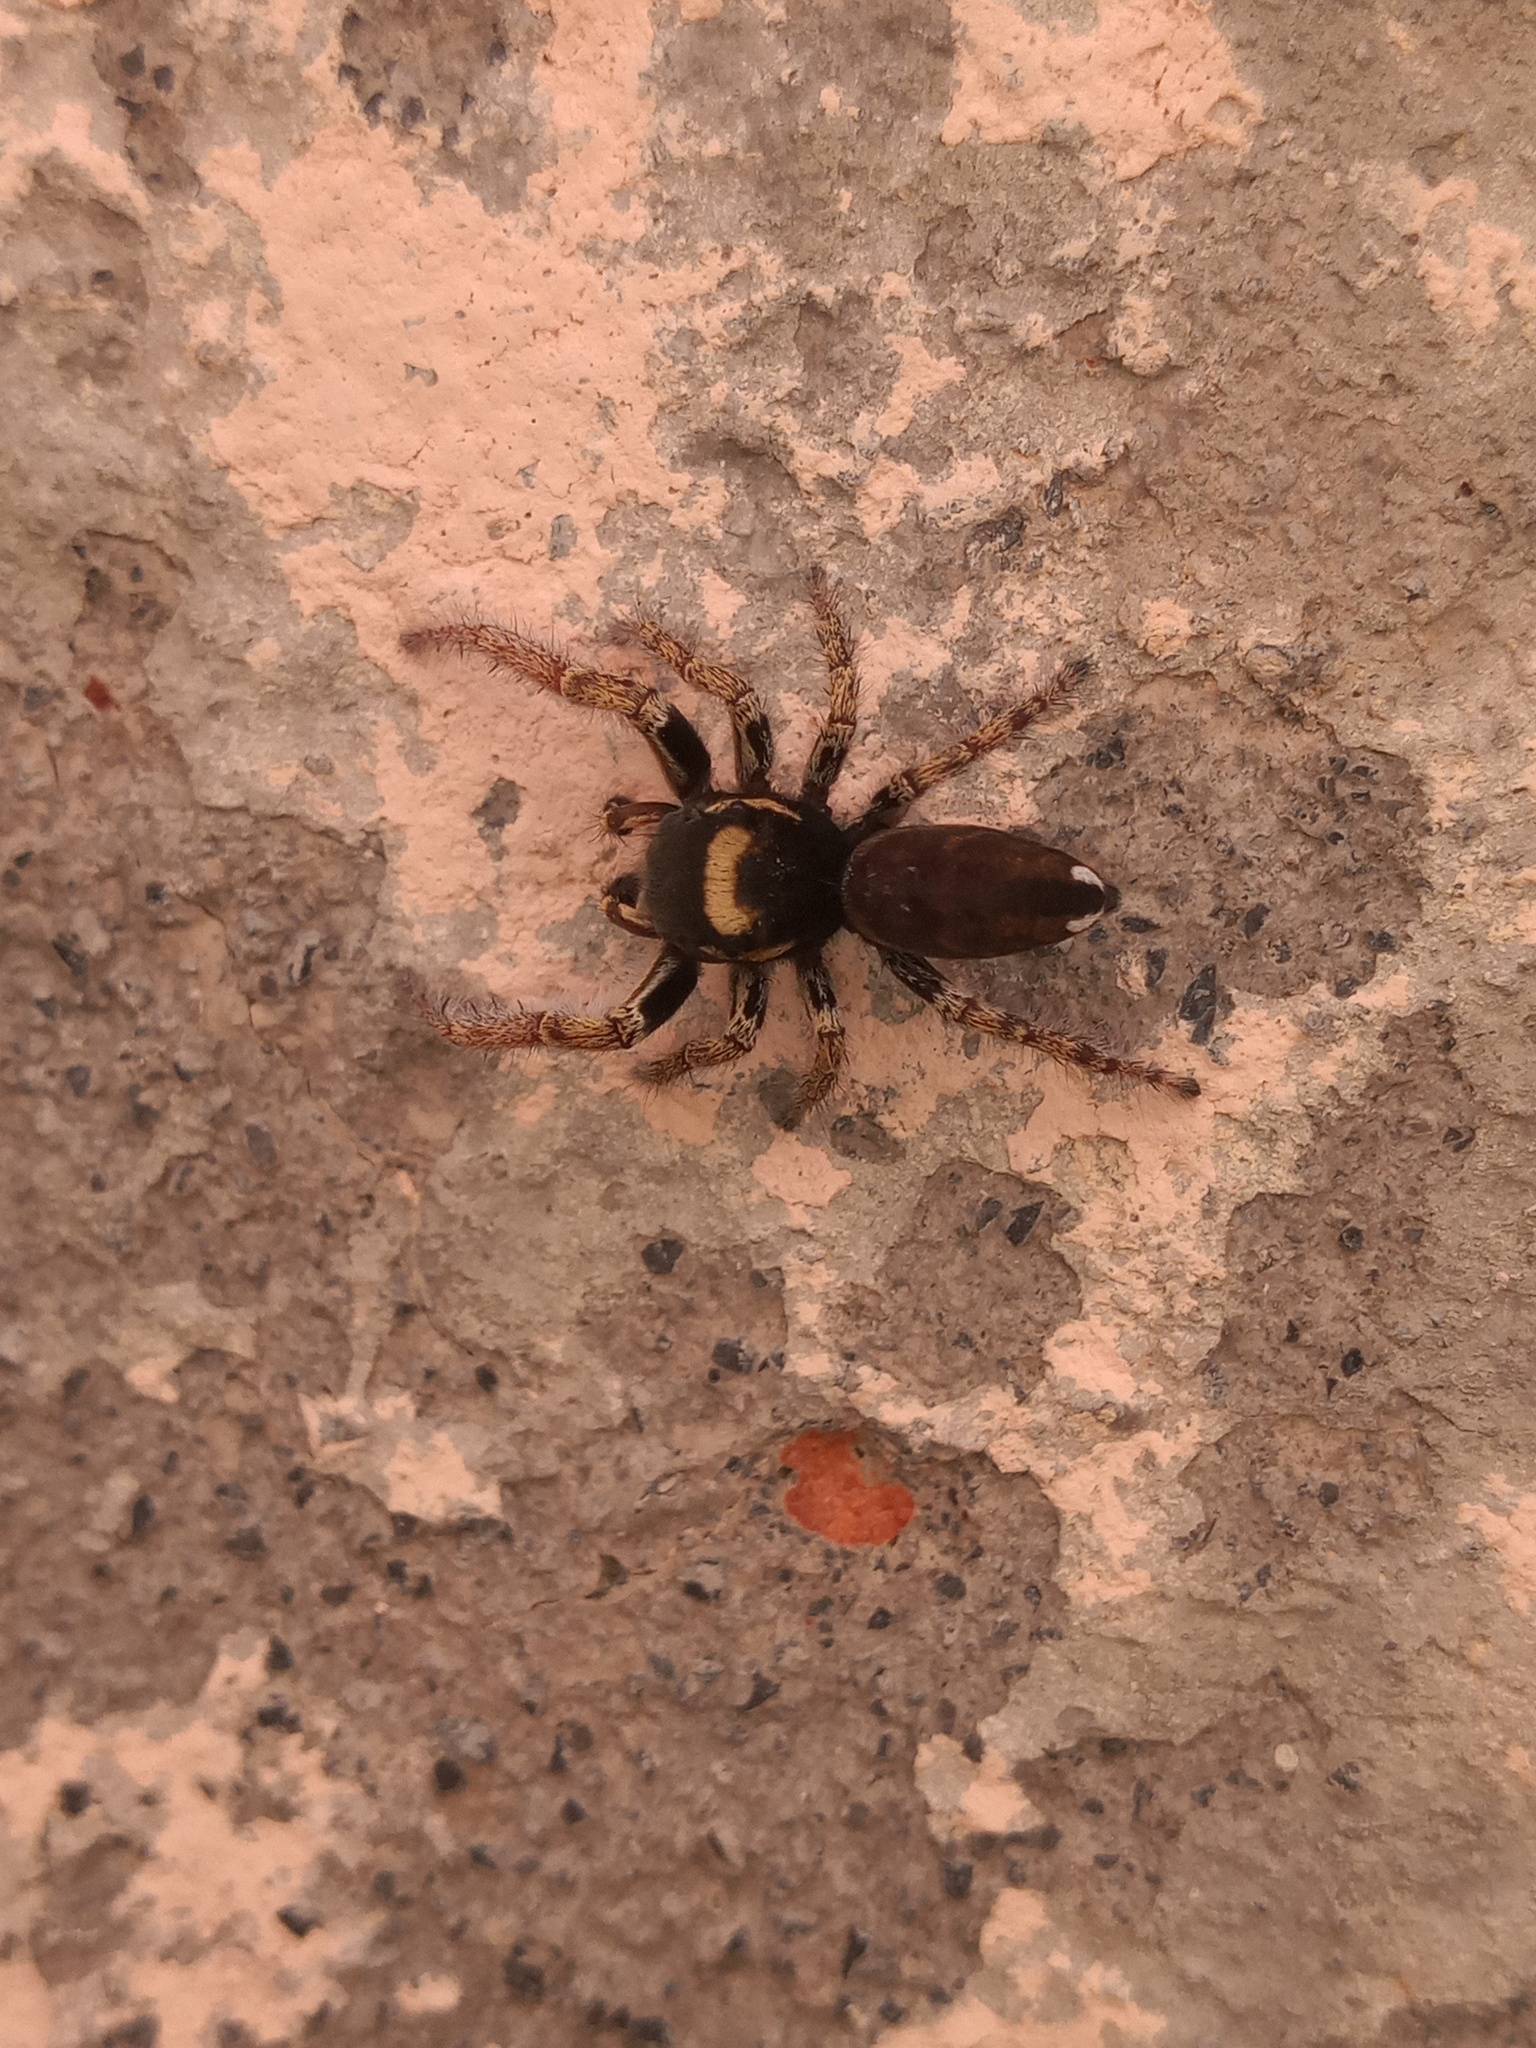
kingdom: Animalia
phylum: Arthropoda
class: Arachnida
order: Araneae
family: Salticidae
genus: Phidippus
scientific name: Phidippus arizonensis
